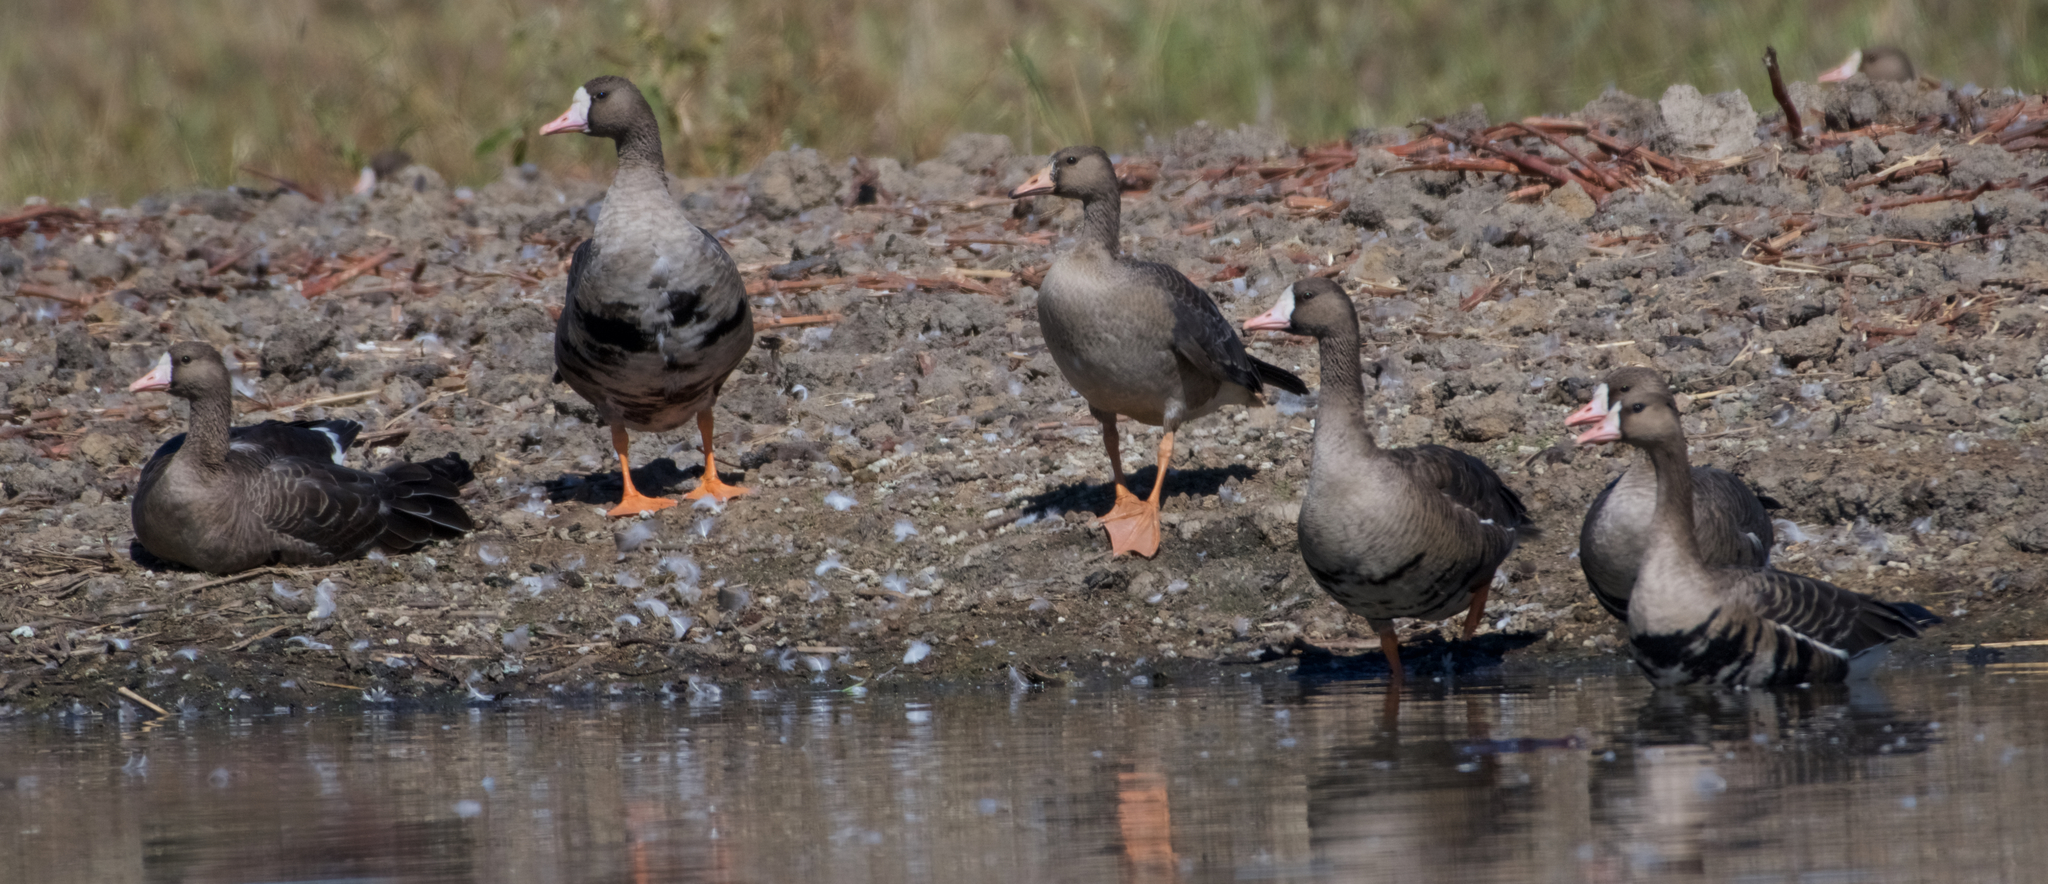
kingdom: Animalia
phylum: Chordata
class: Aves
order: Anseriformes
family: Anatidae
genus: Anser
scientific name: Anser albifrons
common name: Greater white-fronted goose
